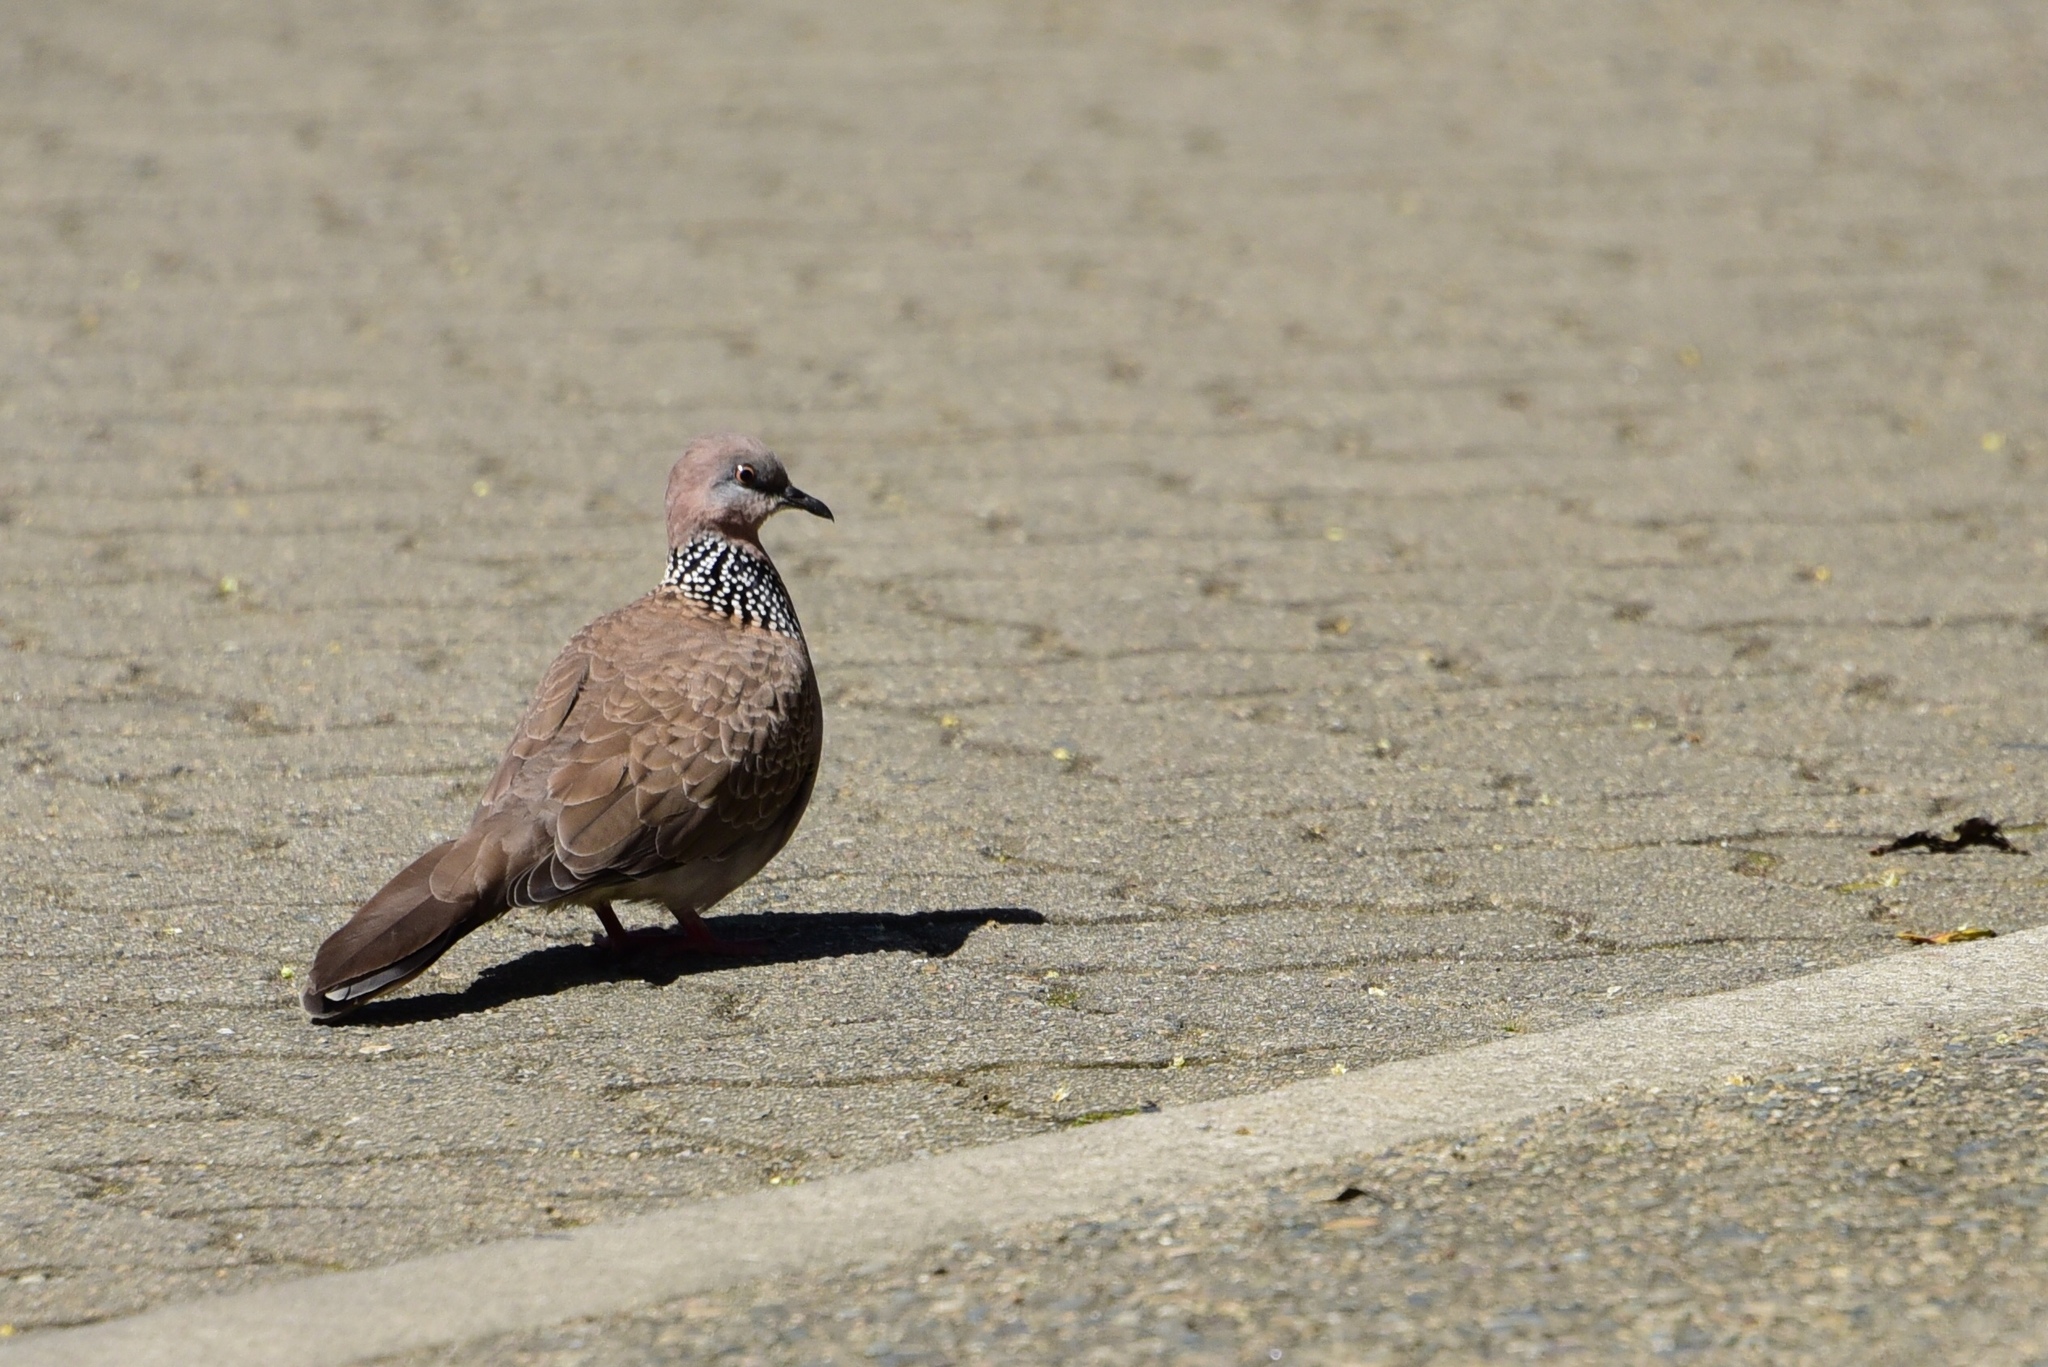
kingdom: Animalia
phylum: Chordata
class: Aves
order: Columbiformes
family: Columbidae
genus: Spilopelia
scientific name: Spilopelia chinensis
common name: Spotted dove
